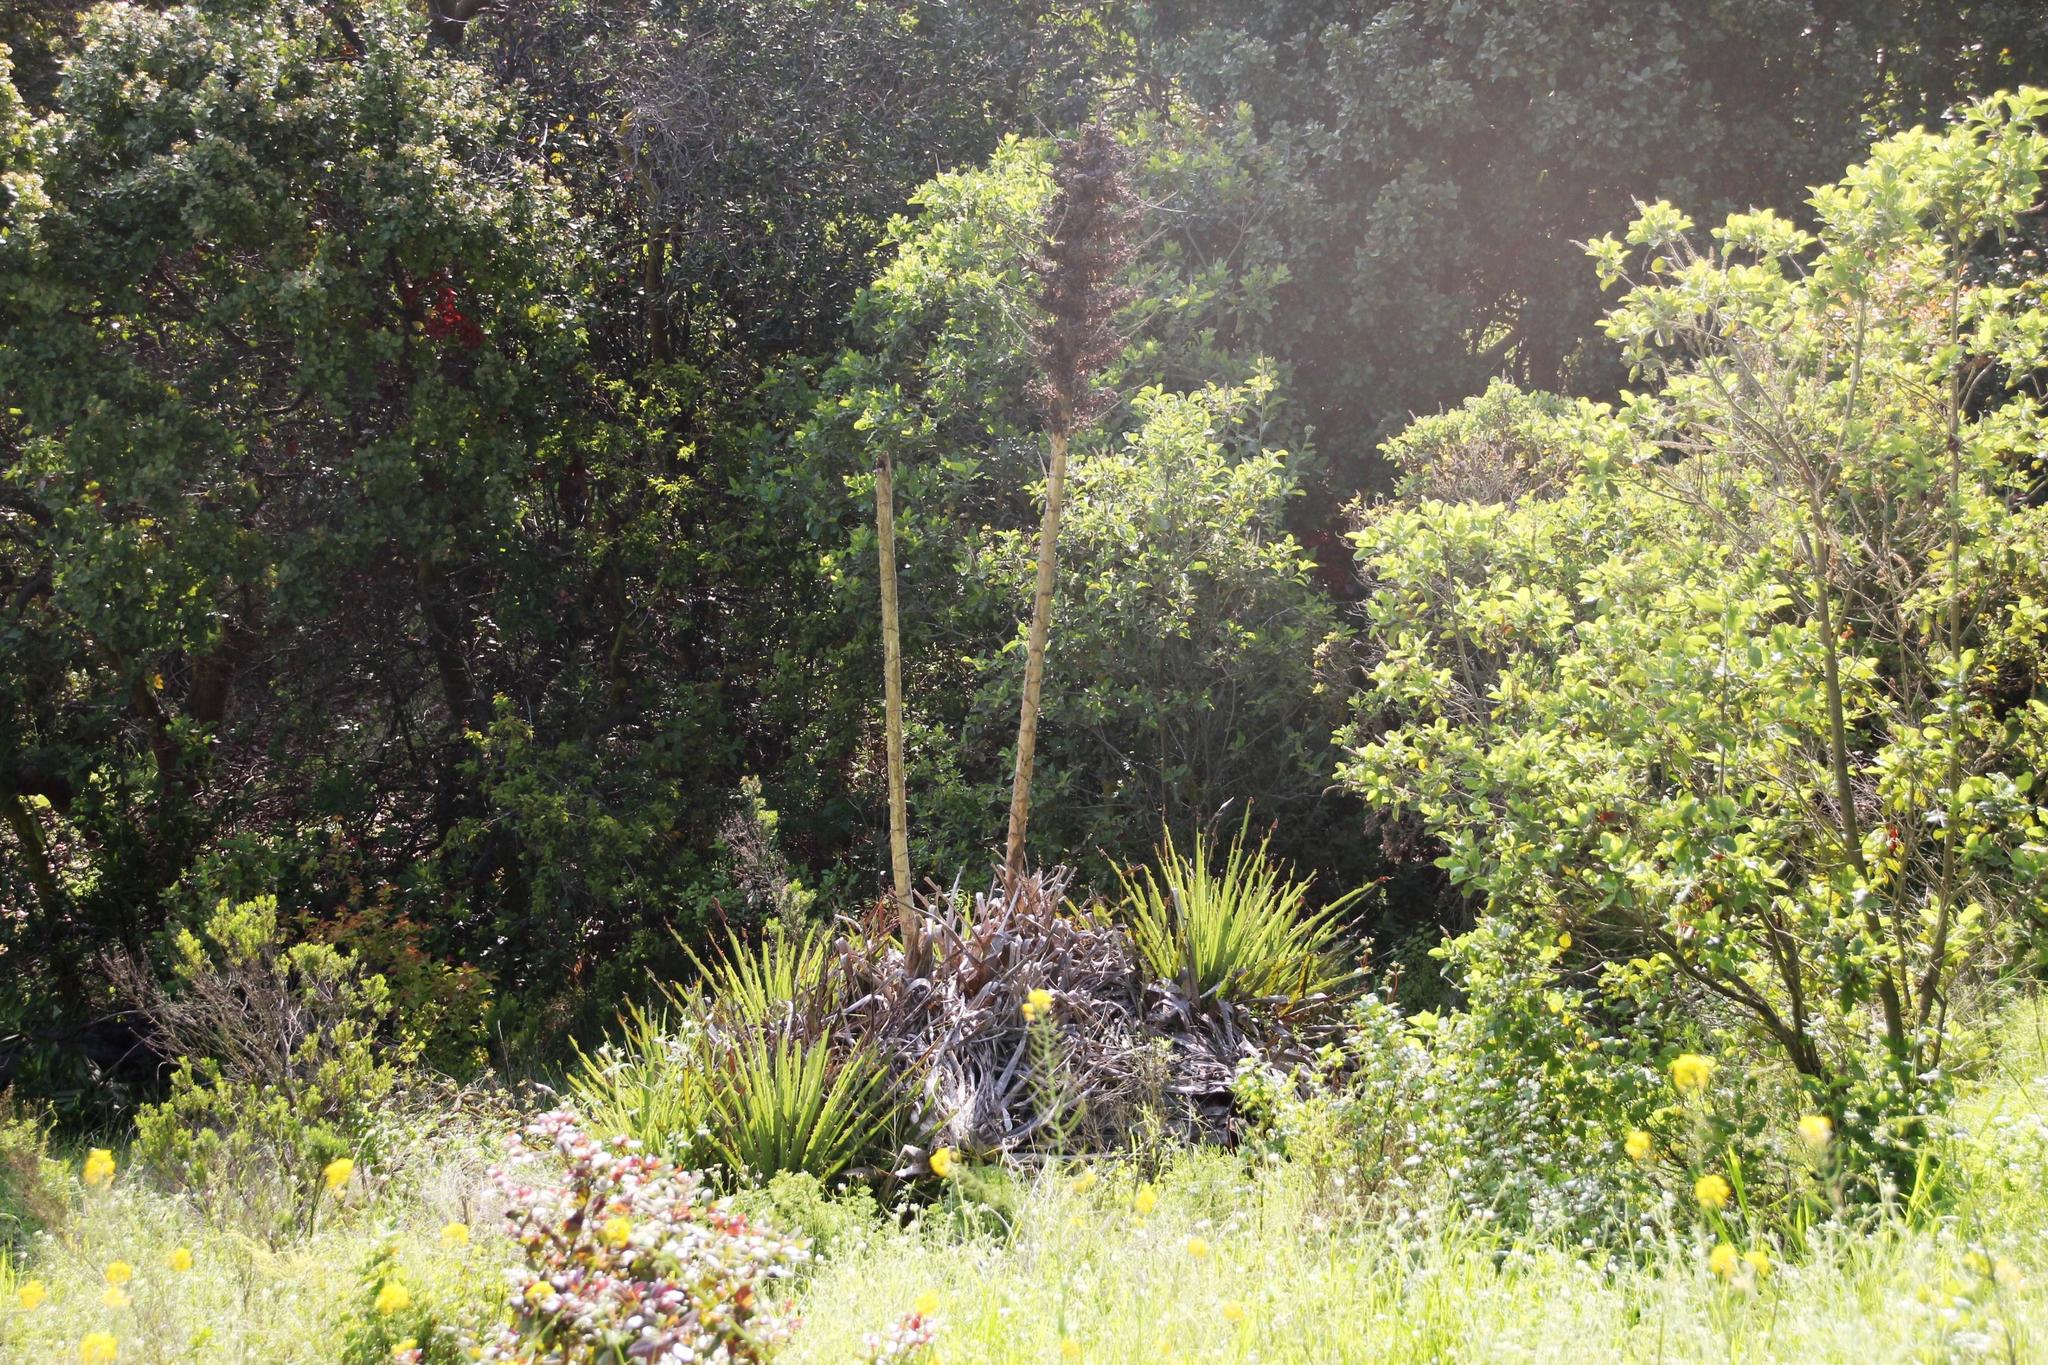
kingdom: Plantae
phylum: Tracheophyta
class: Liliopsida
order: Poales
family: Bromeliaceae
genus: Puya
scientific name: Puya chilensis
